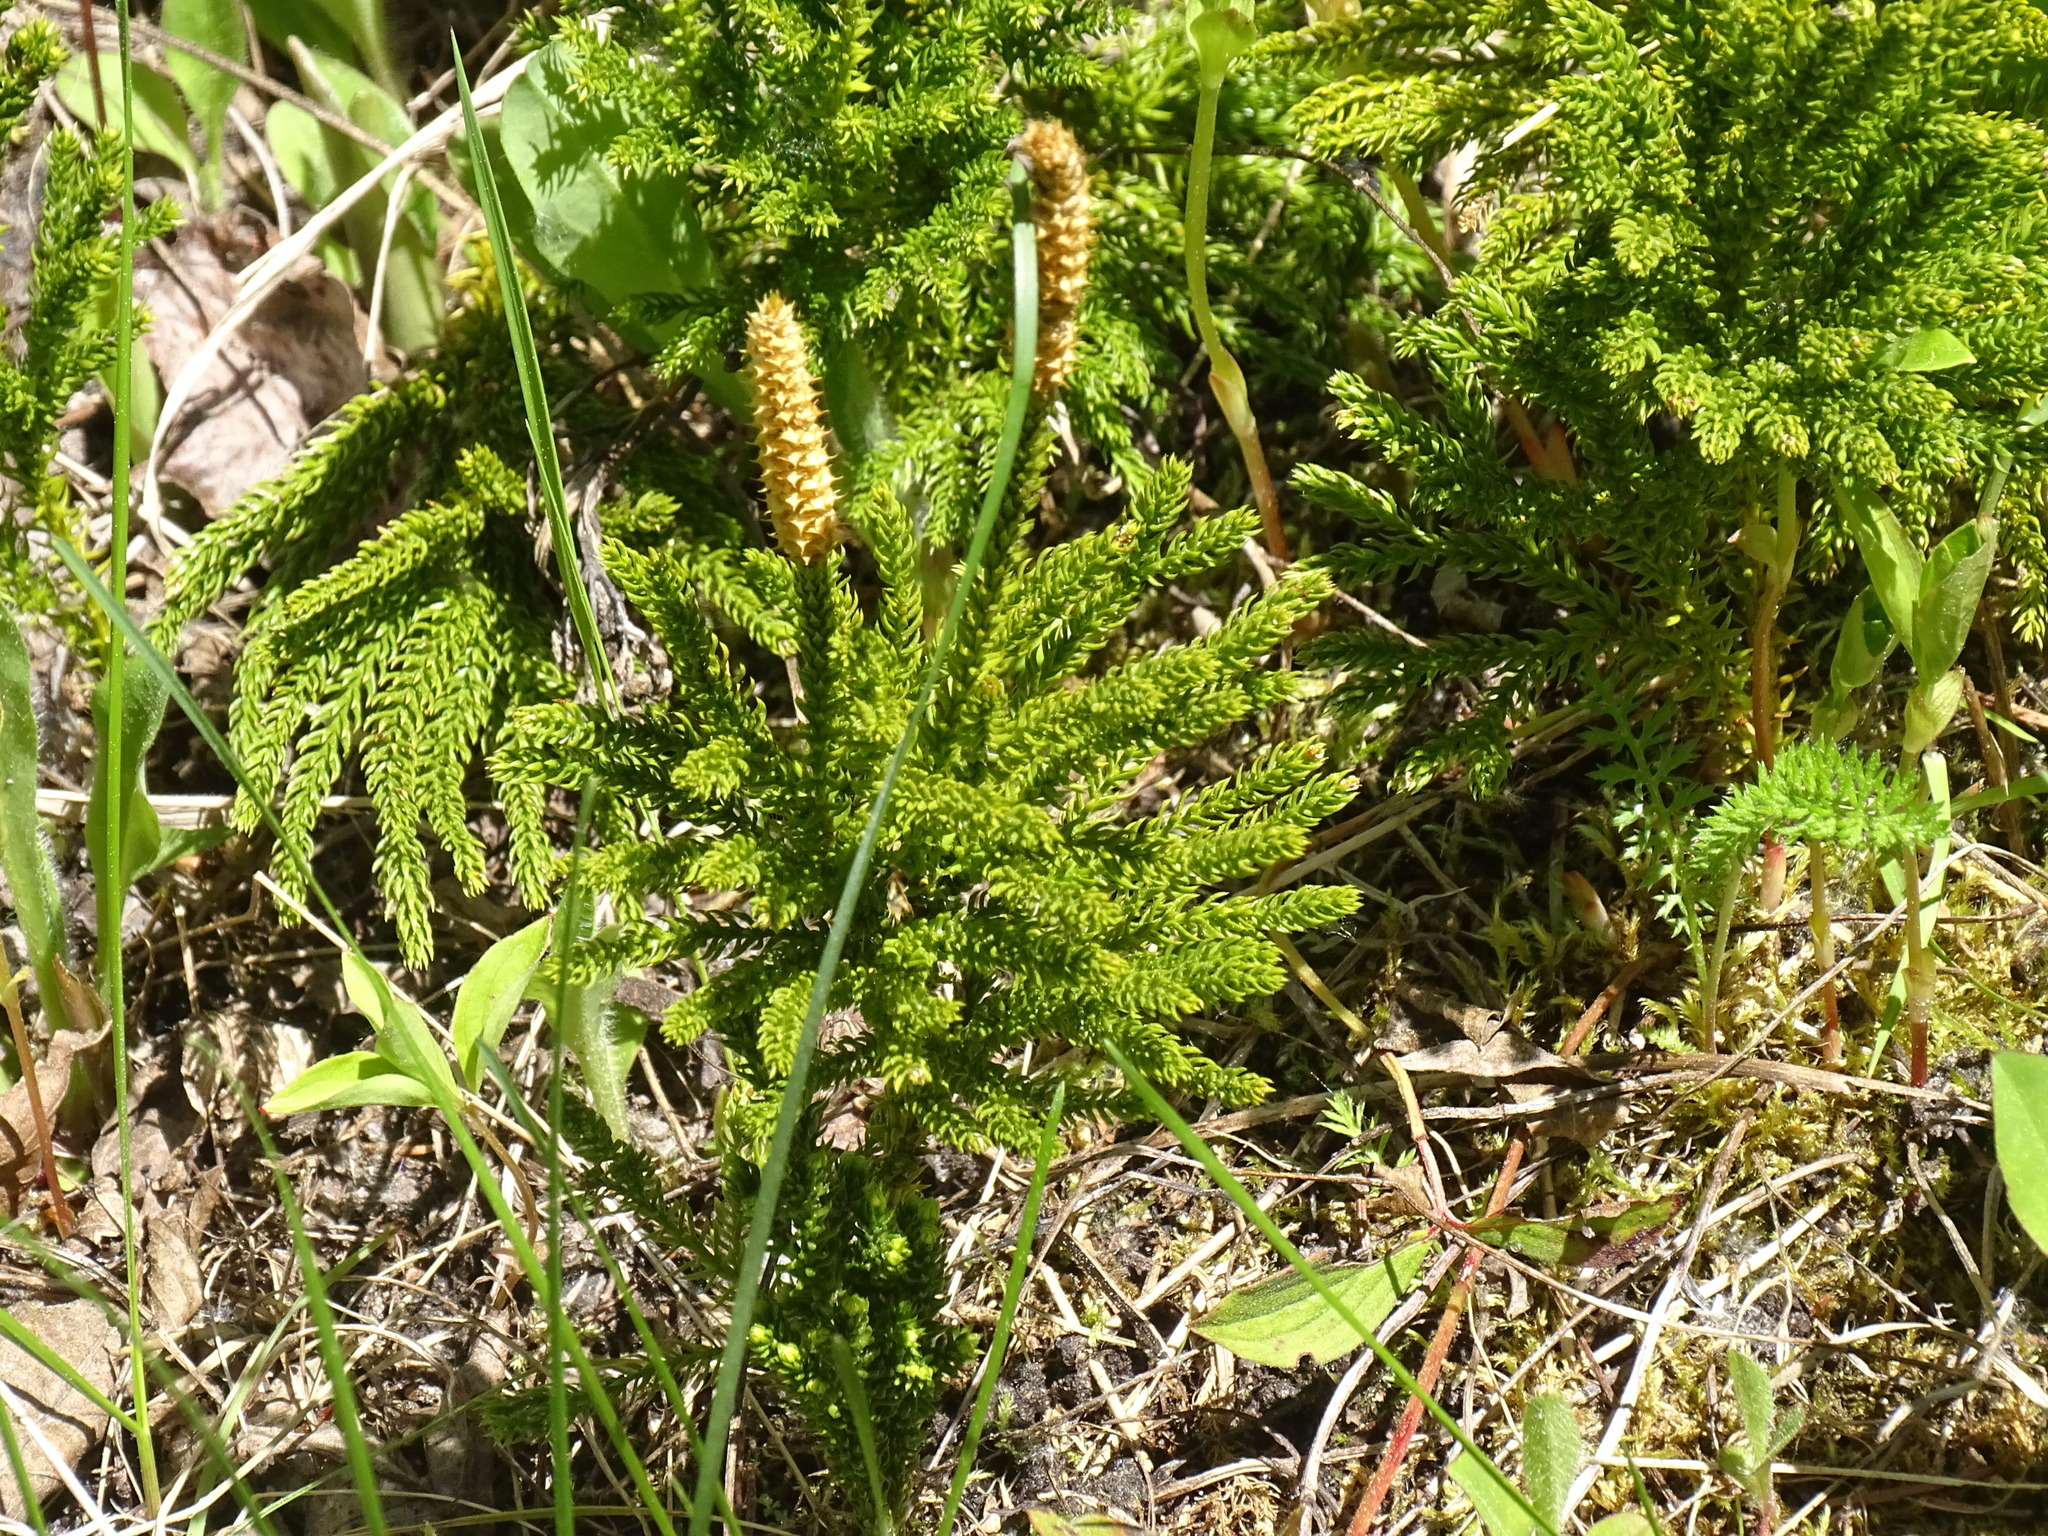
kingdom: Plantae
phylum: Tracheophyta
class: Lycopodiopsida
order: Lycopodiales
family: Lycopodiaceae
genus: Dendrolycopodium
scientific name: Dendrolycopodium dendroideum
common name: Northern tree-clubmoss
